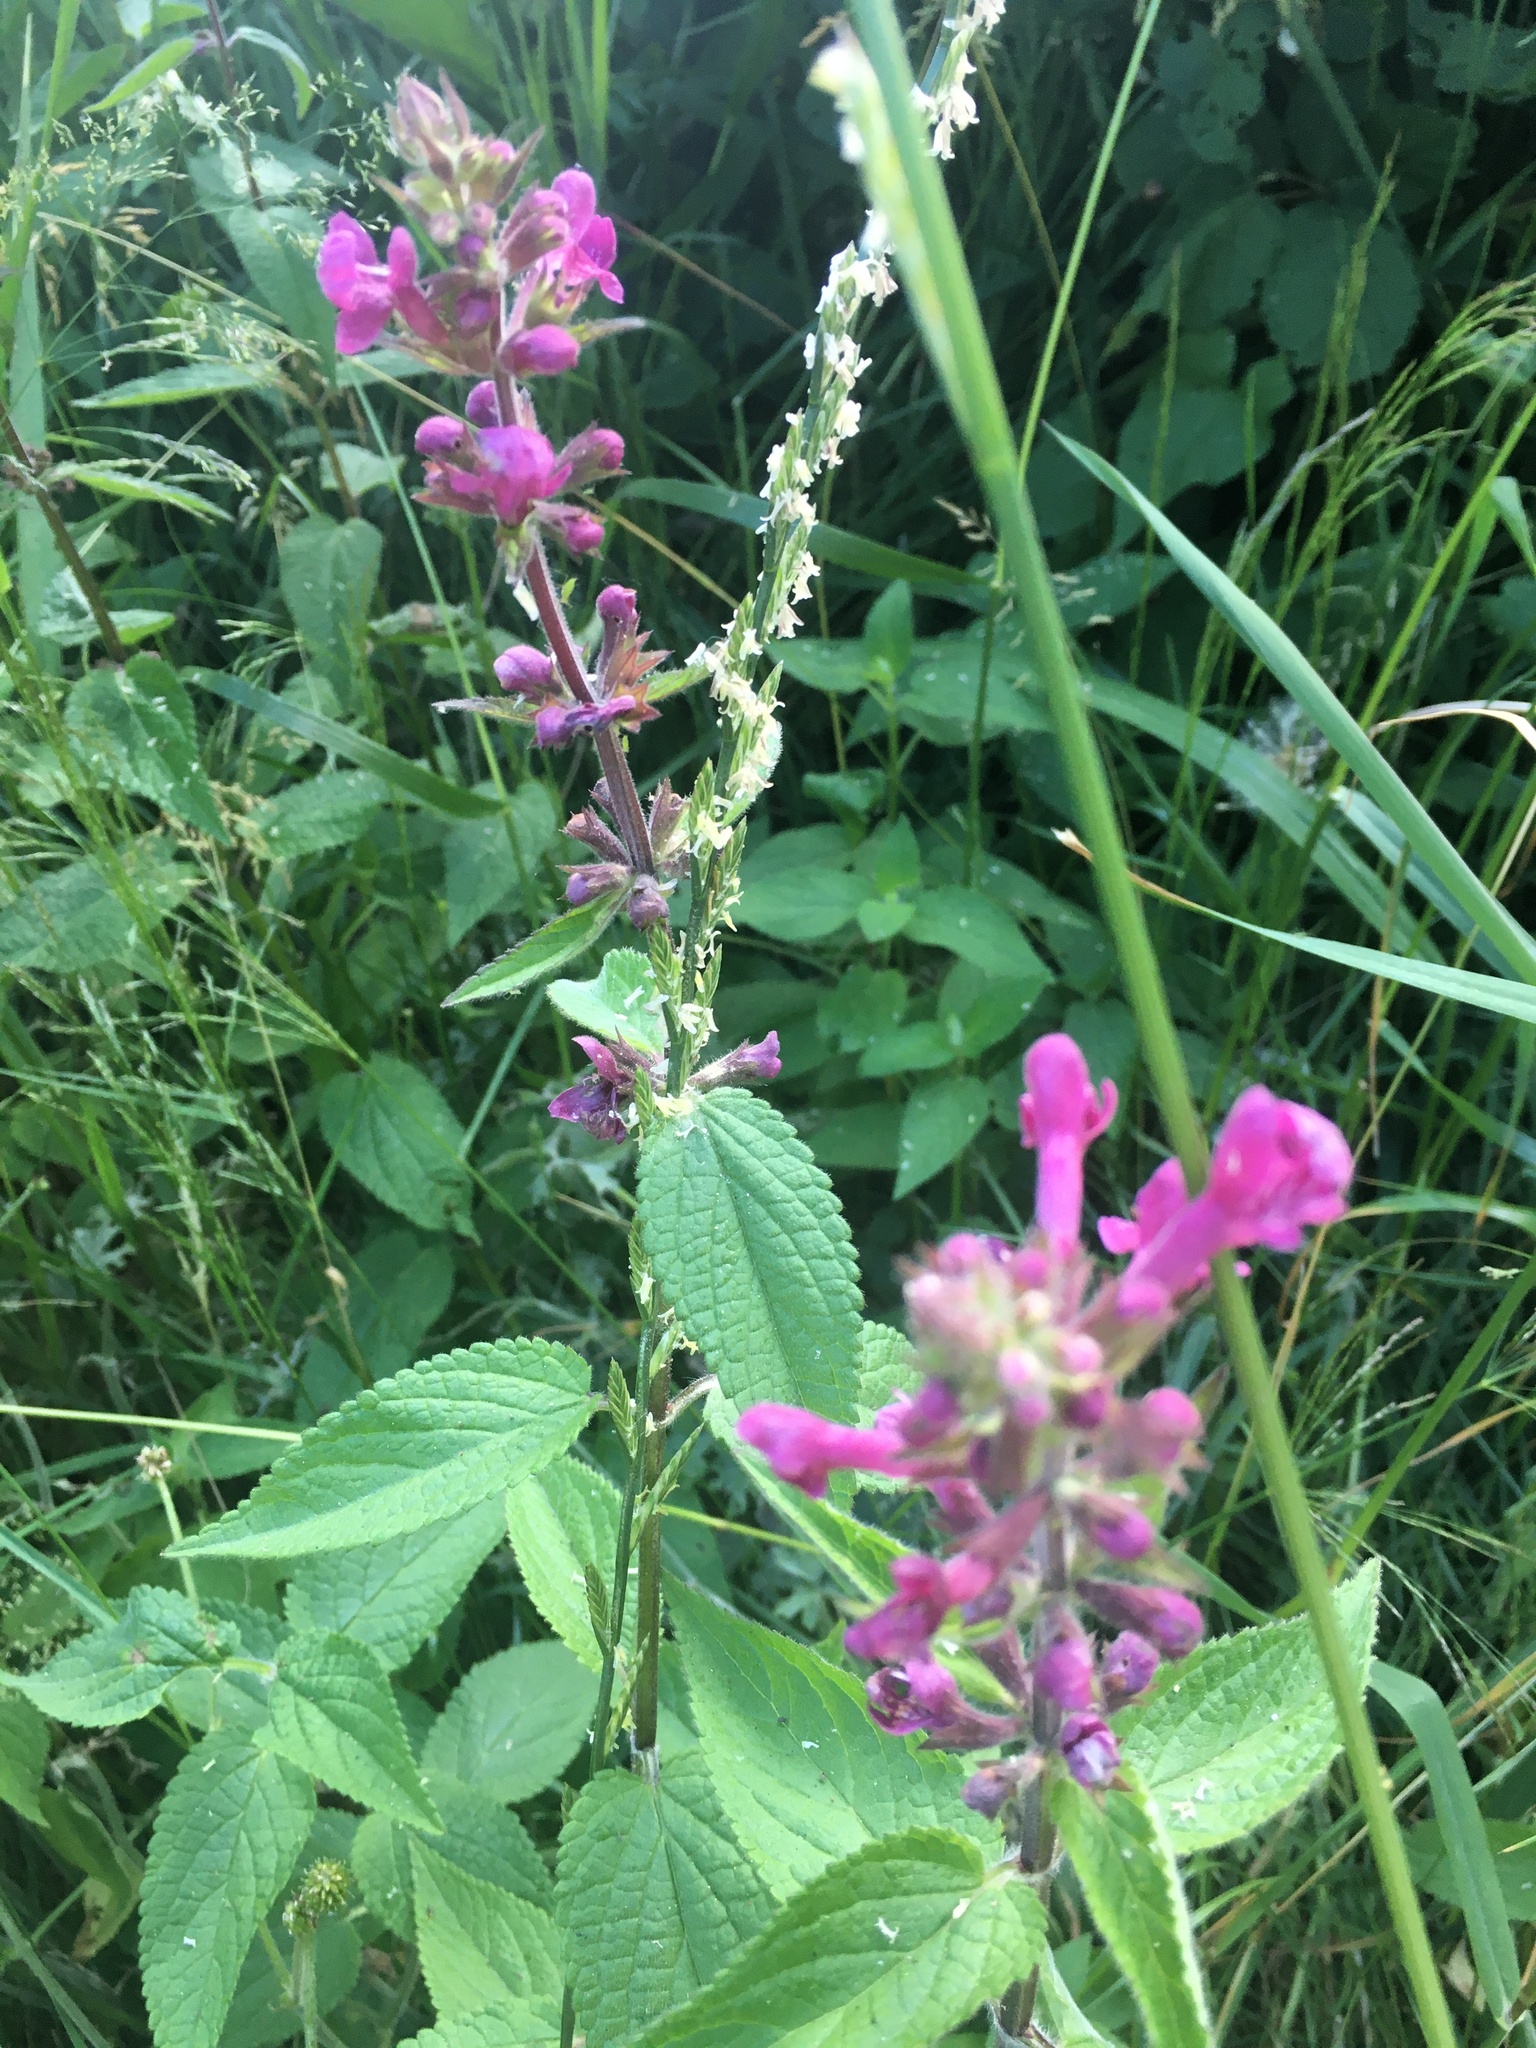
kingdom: Plantae
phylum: Tracheophyta
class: Magnoliopsida
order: Lamiales
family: Lamiaceae
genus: Stachys
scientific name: Stachys chamissonis
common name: Coastal hedge-nettle
